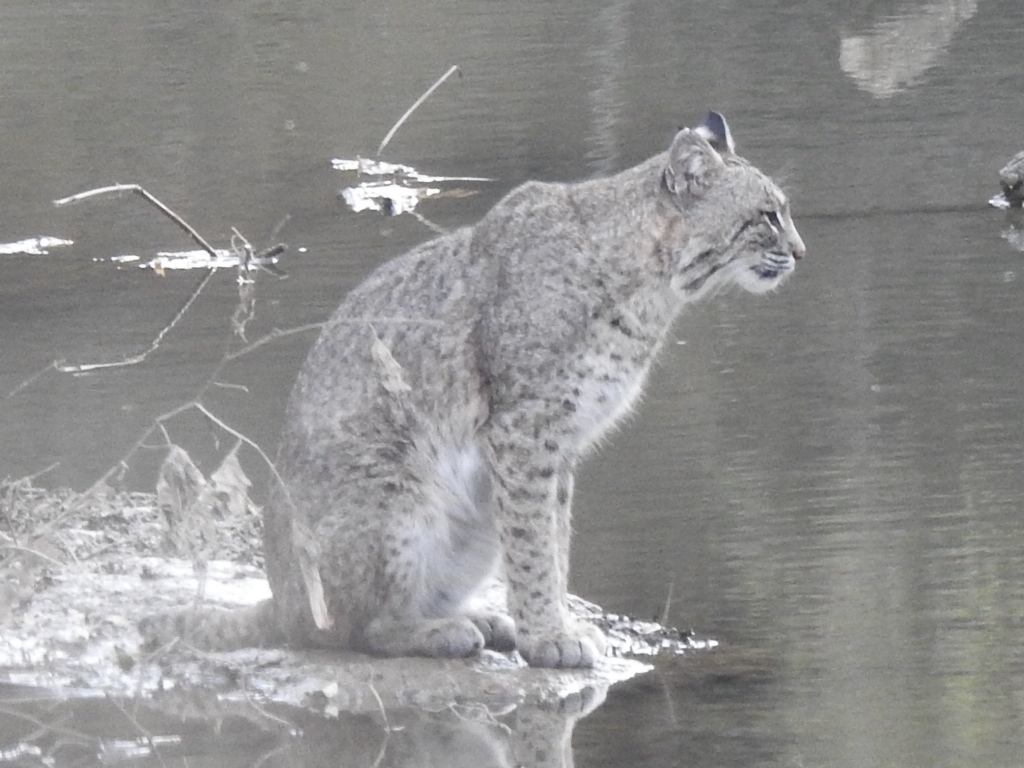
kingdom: Animalia
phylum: Chordata
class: Mammalia
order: Carnivora
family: Felidae
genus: Lynx
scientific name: Lynx rufus
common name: Bobcat
